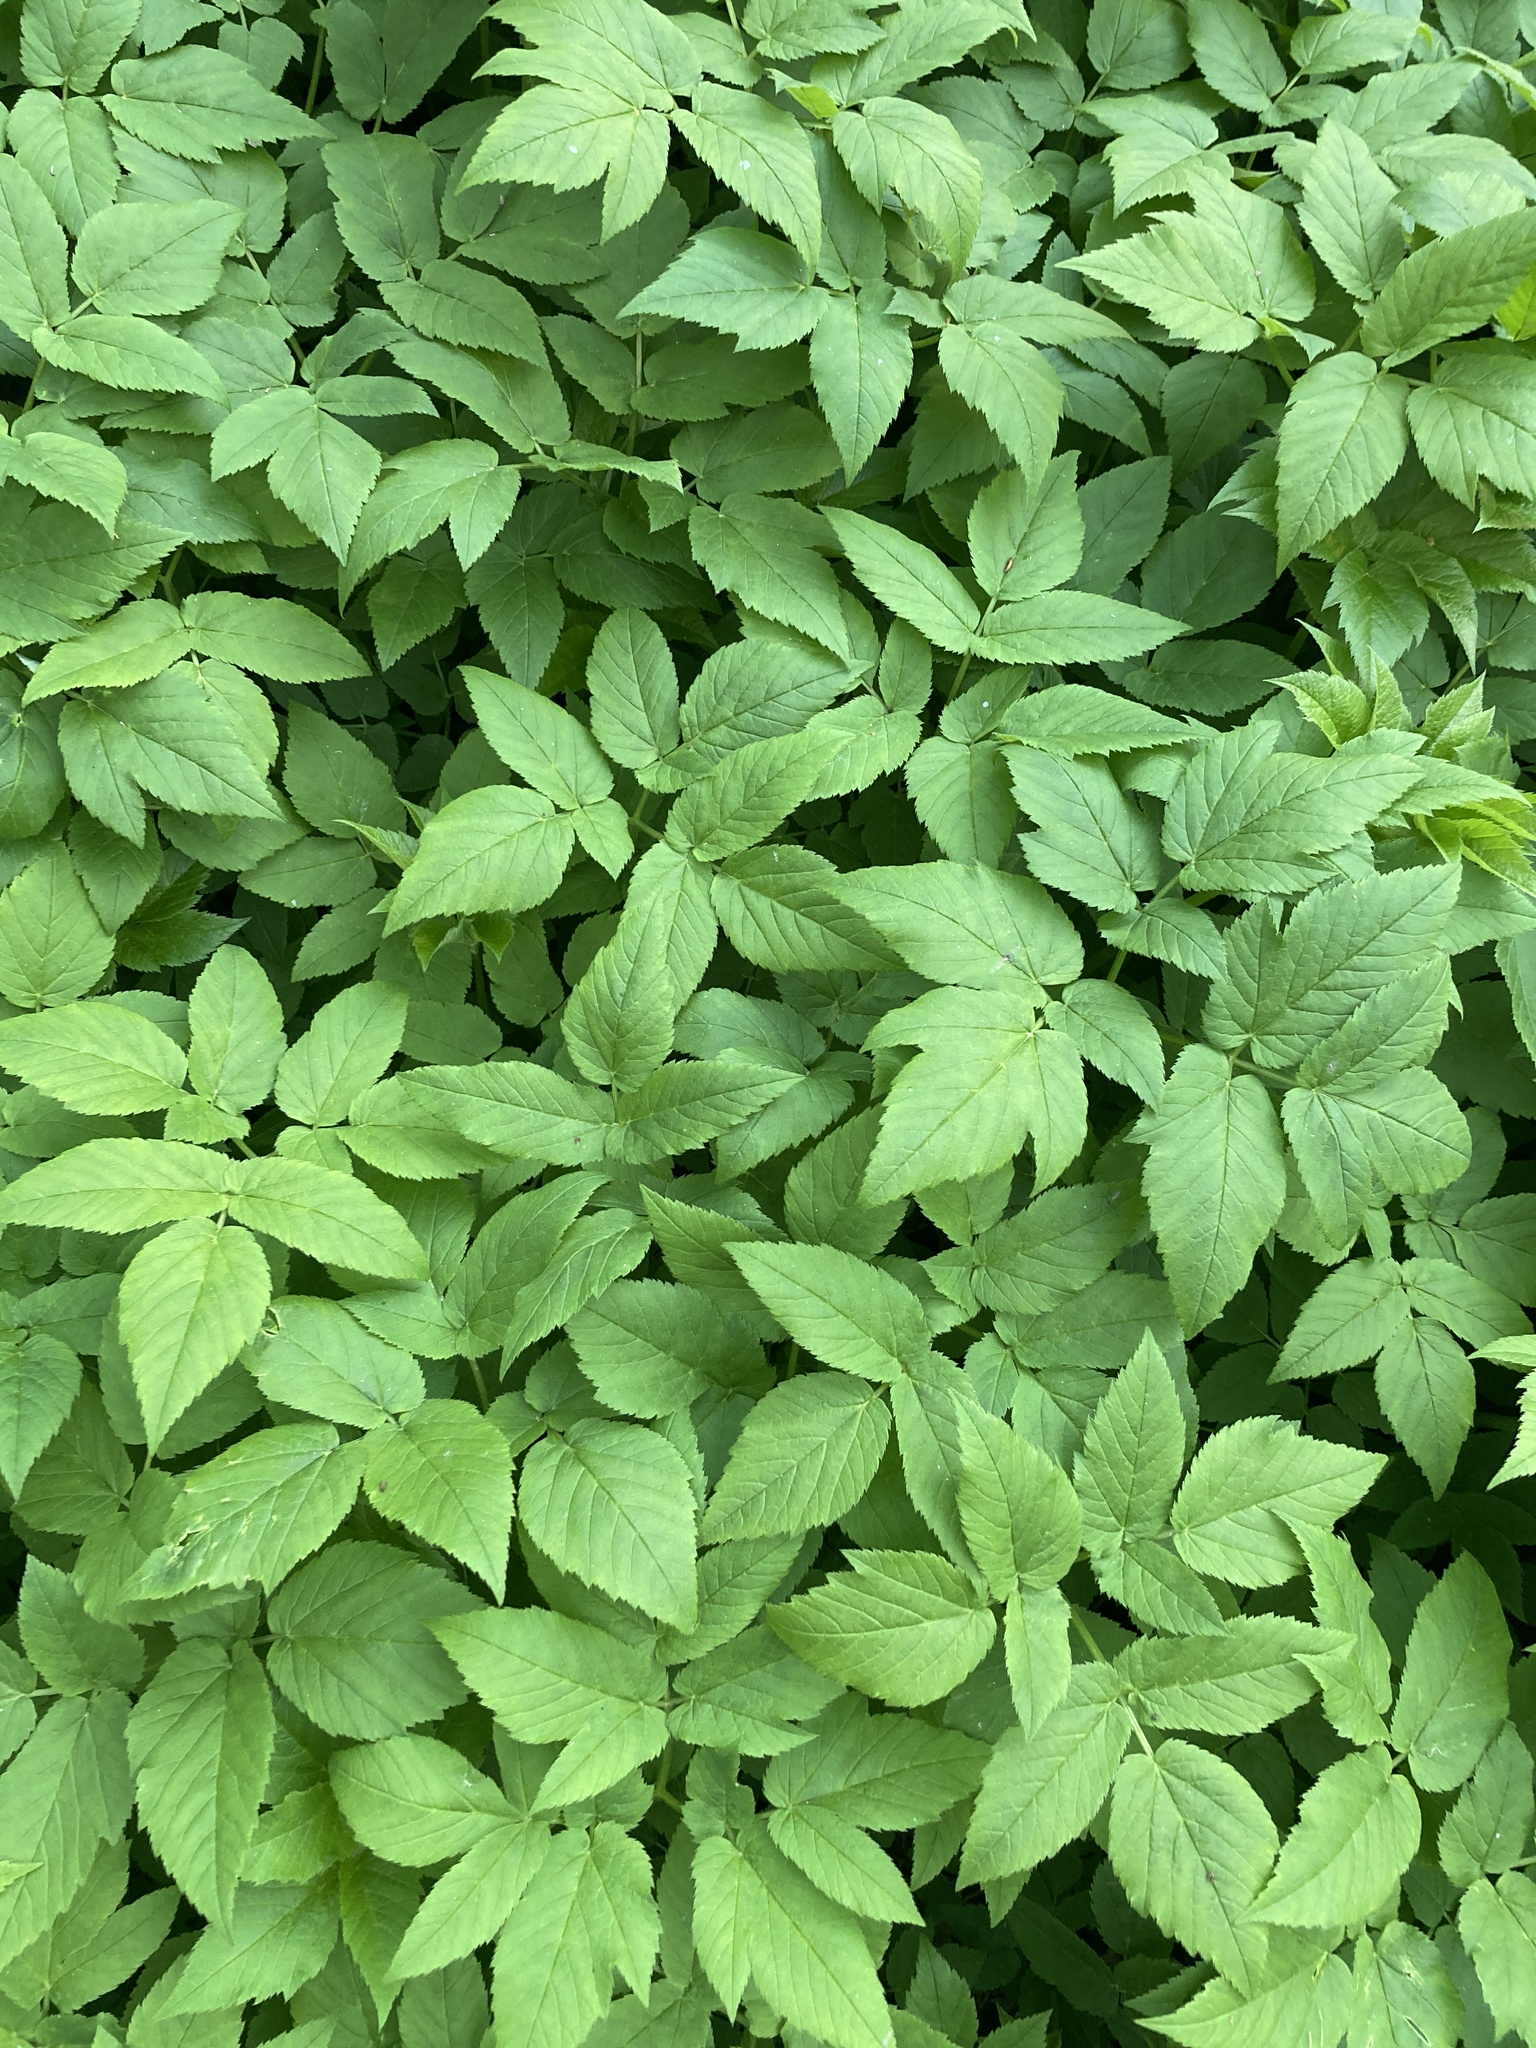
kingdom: Plantae
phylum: Tracheophyta
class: Magnoliopsida
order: Apiales
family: Apiaceae
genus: Aegopodium
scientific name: Aegopodium podagraria
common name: Ground-elder
